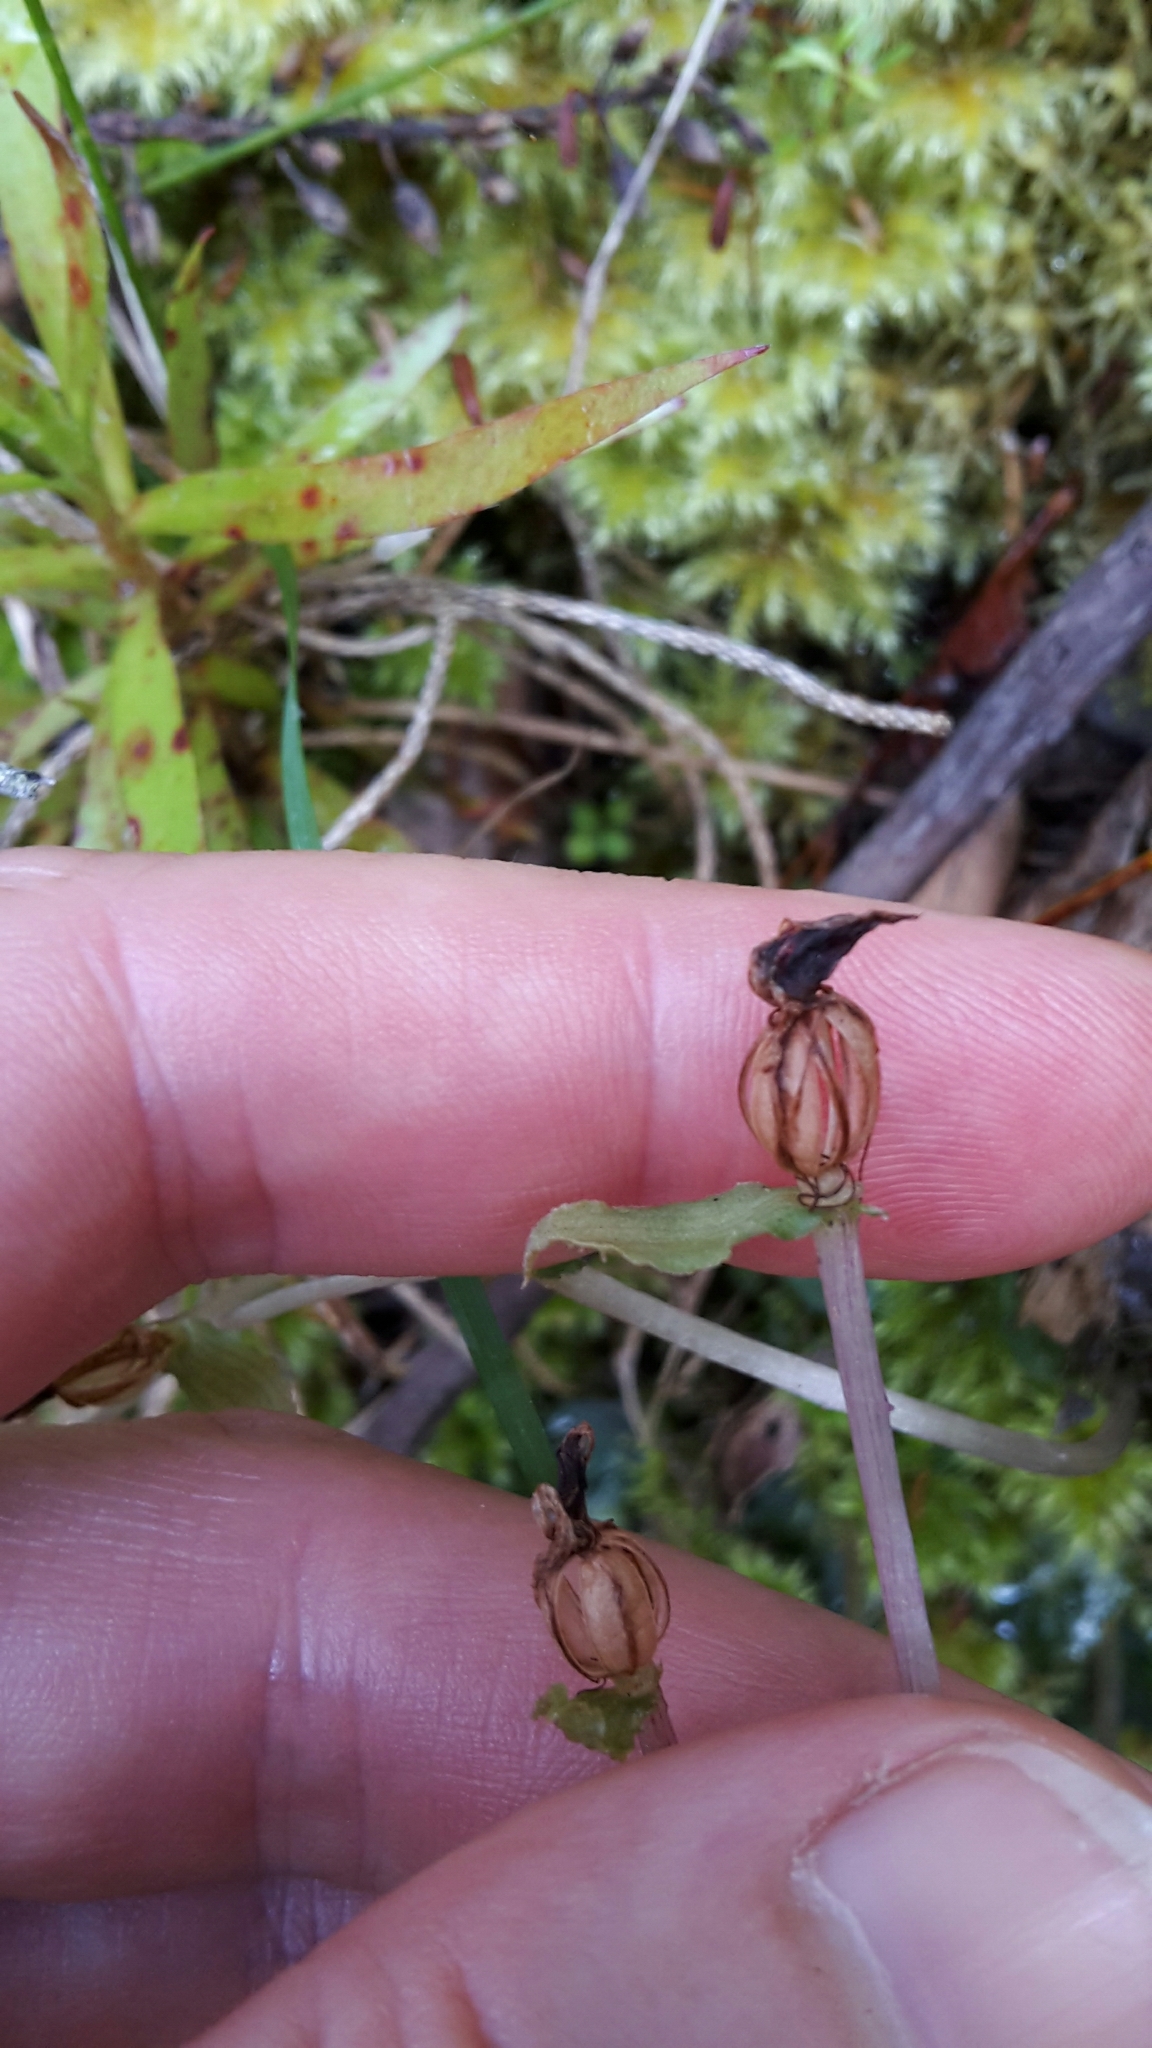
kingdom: Plantae
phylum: Tracheophyta
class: Liliopsida
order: Asparagales
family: Orchidaceae
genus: Corybas
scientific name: Corybas oblongus
